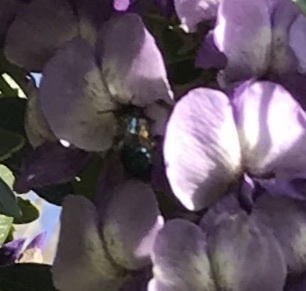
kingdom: Animalia
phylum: Arthropoda
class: Insecta
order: Hymenoptera
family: Megachilidae
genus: Osmia
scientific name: Osmia ribifloris
